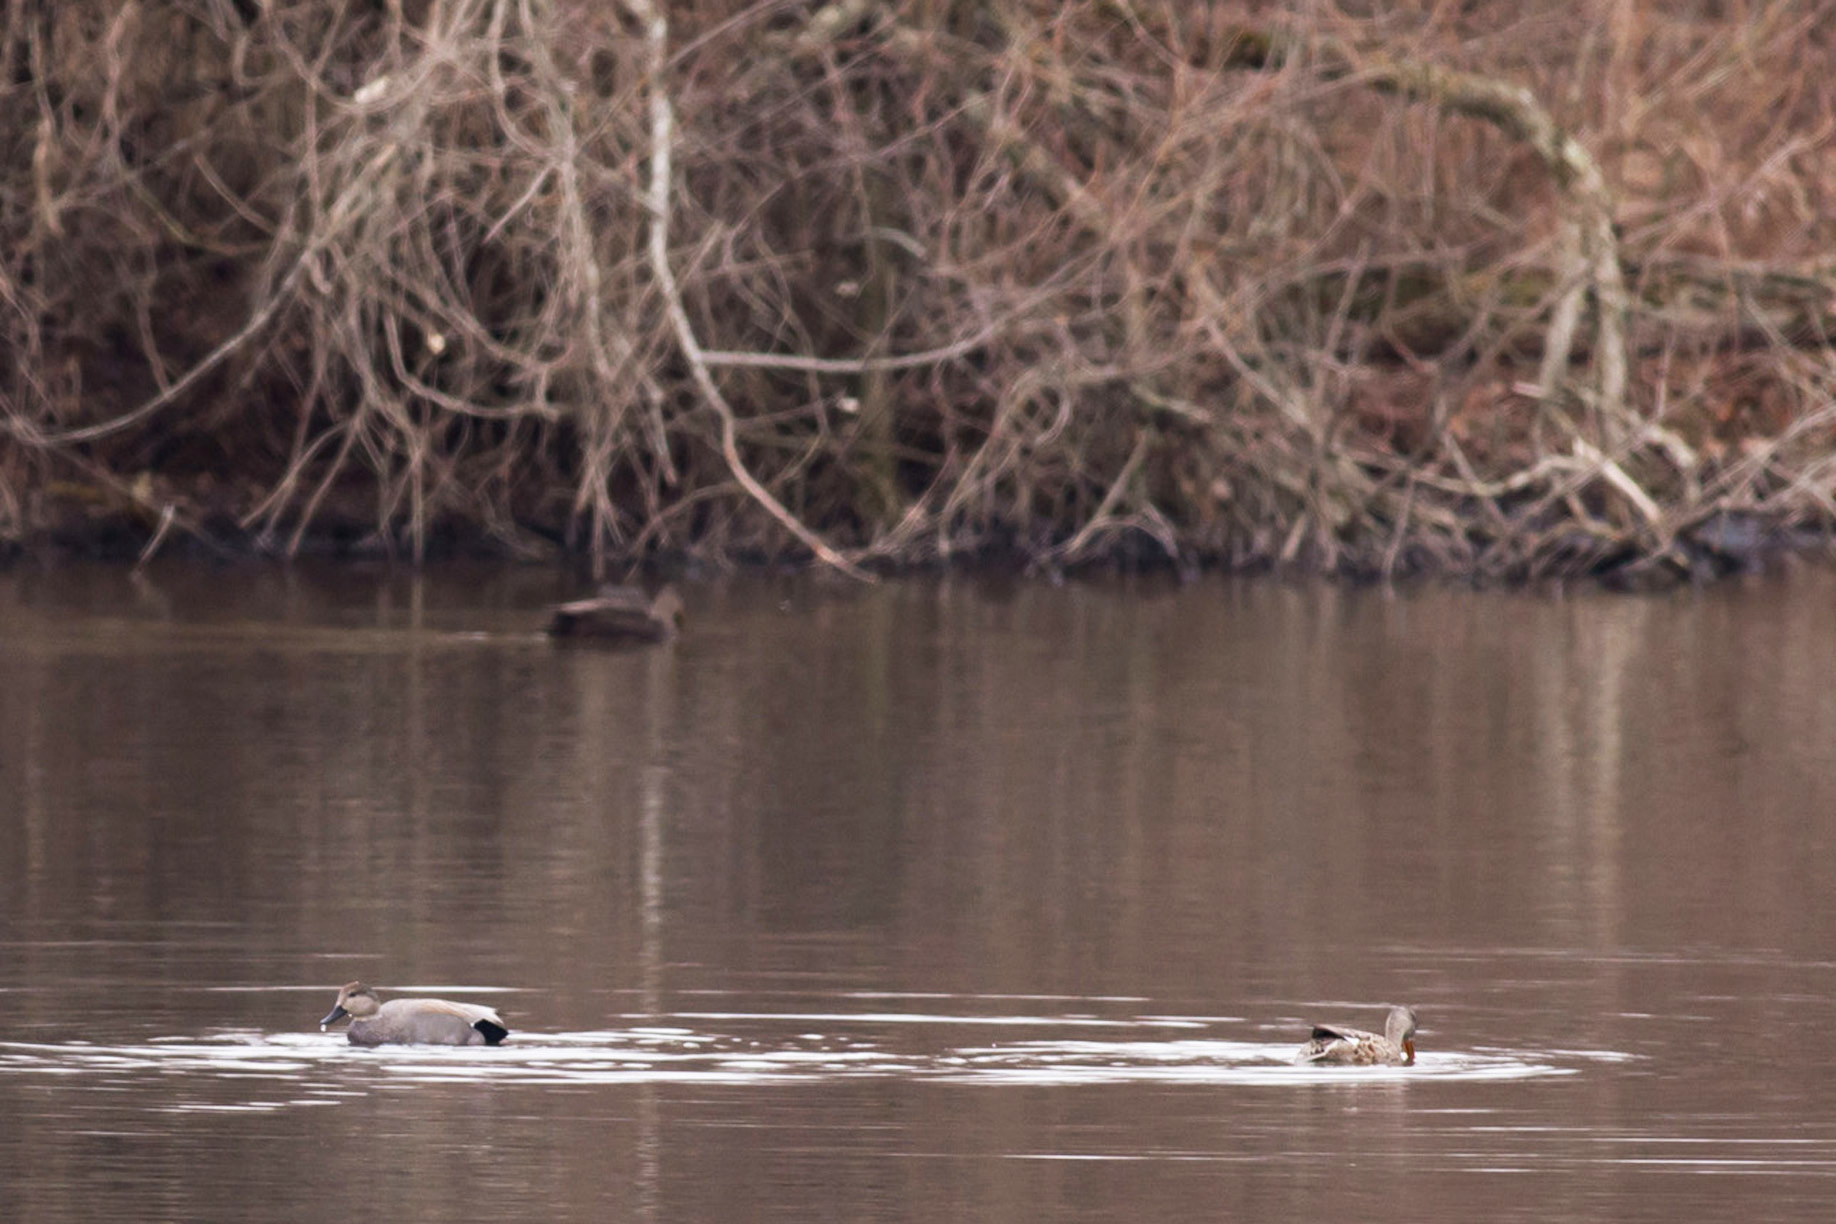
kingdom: Animalia
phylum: Chordata
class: Aves
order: Anseriformes
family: Anatidae
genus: Mareca
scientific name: Mareca strepera
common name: Gadwall
